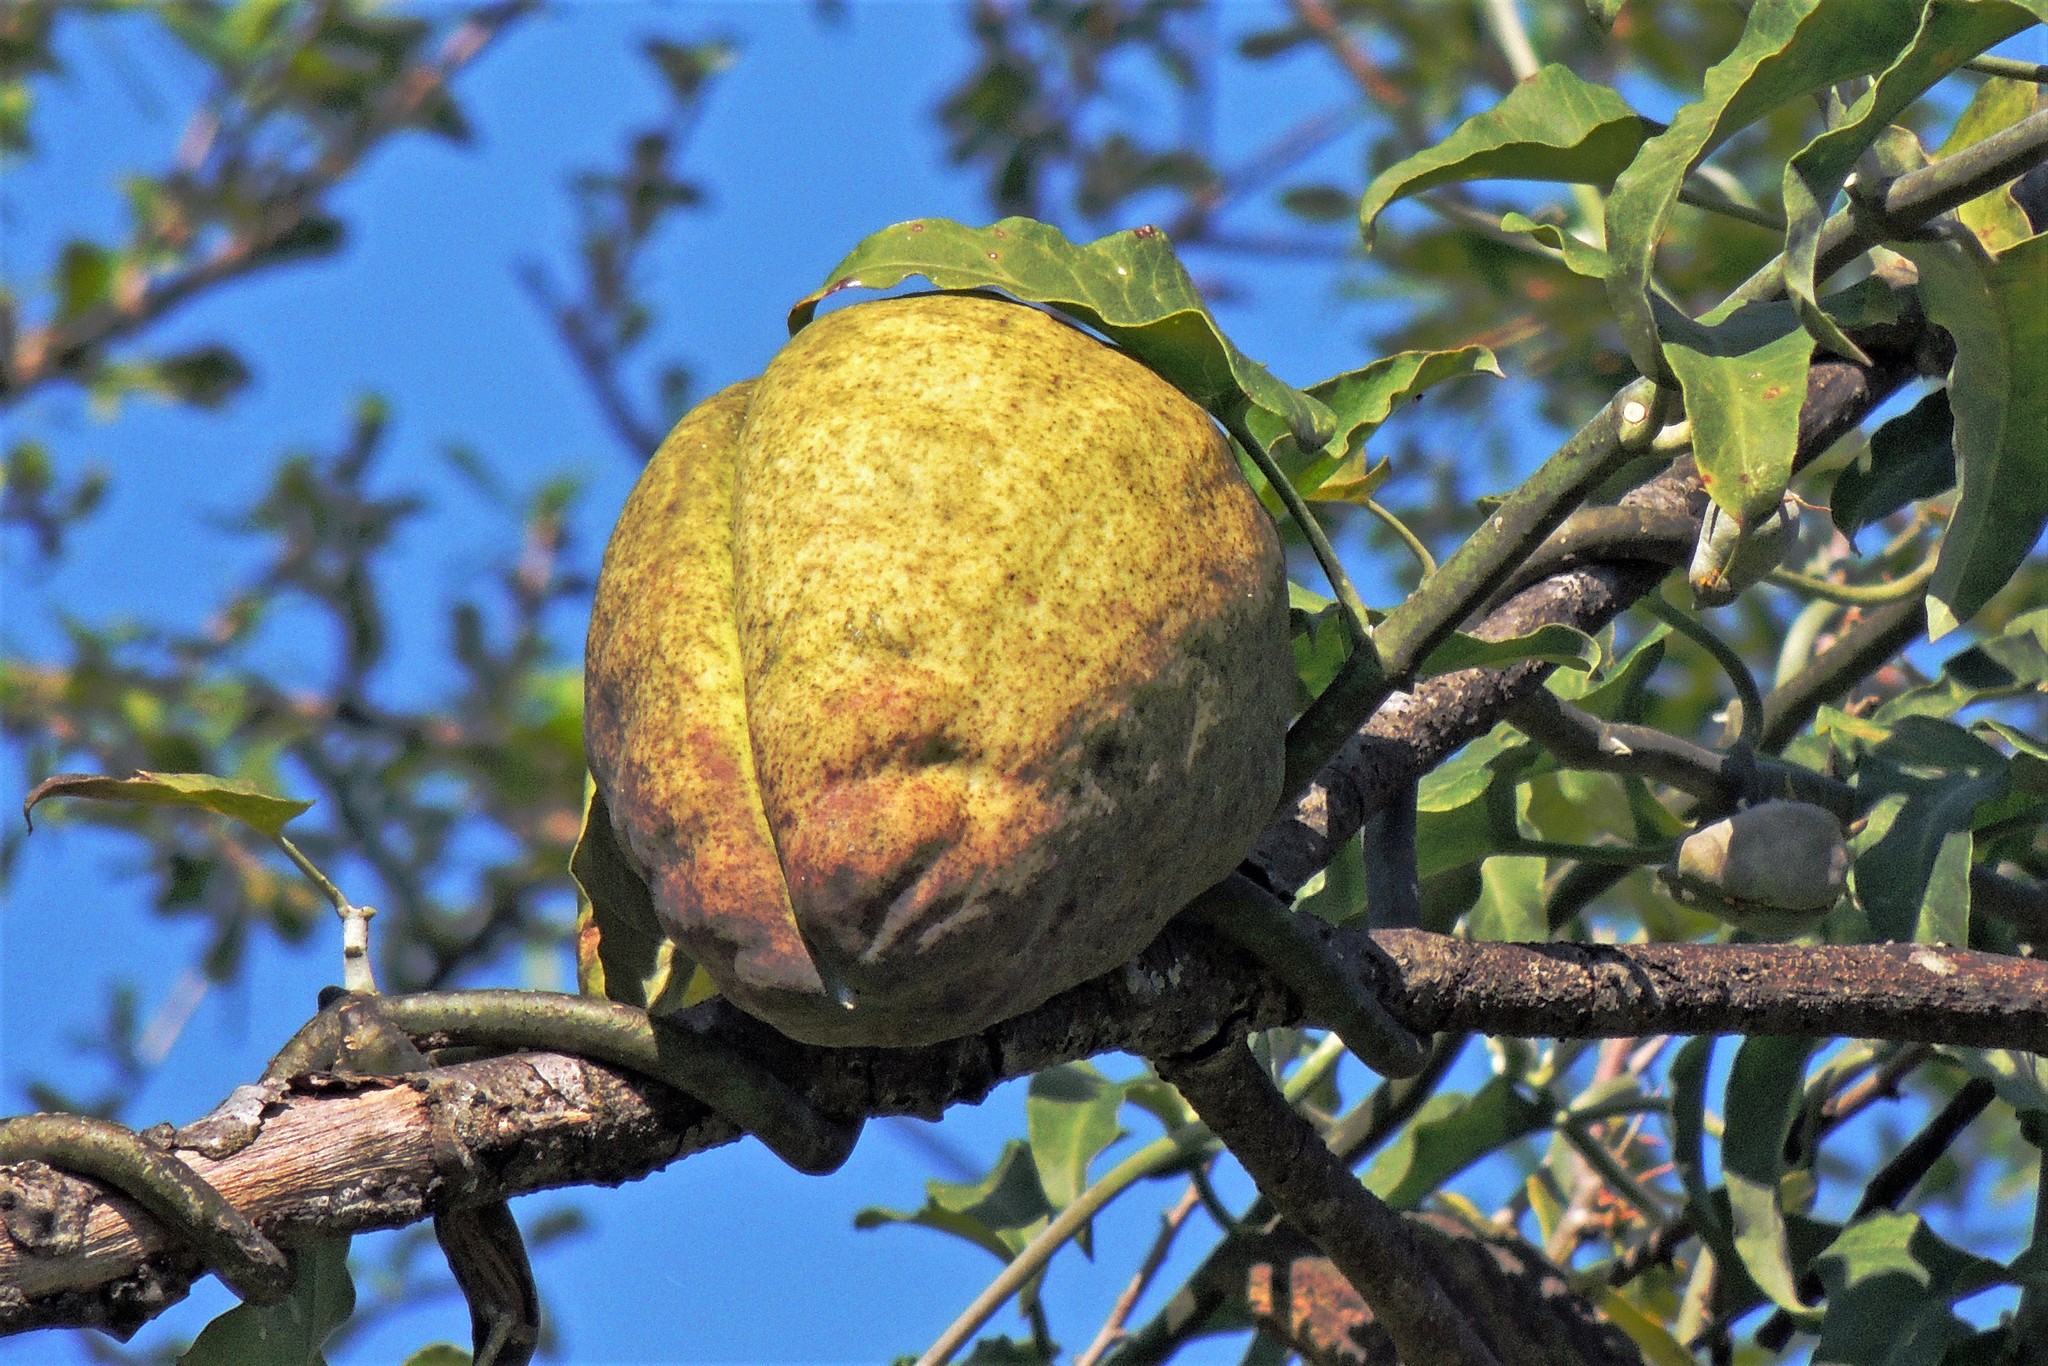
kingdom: Plantae
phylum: Tracheophyta
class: Magnoliopsida
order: Gentianales
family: Apocynaceae
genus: Araujia
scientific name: Araujia odorata
